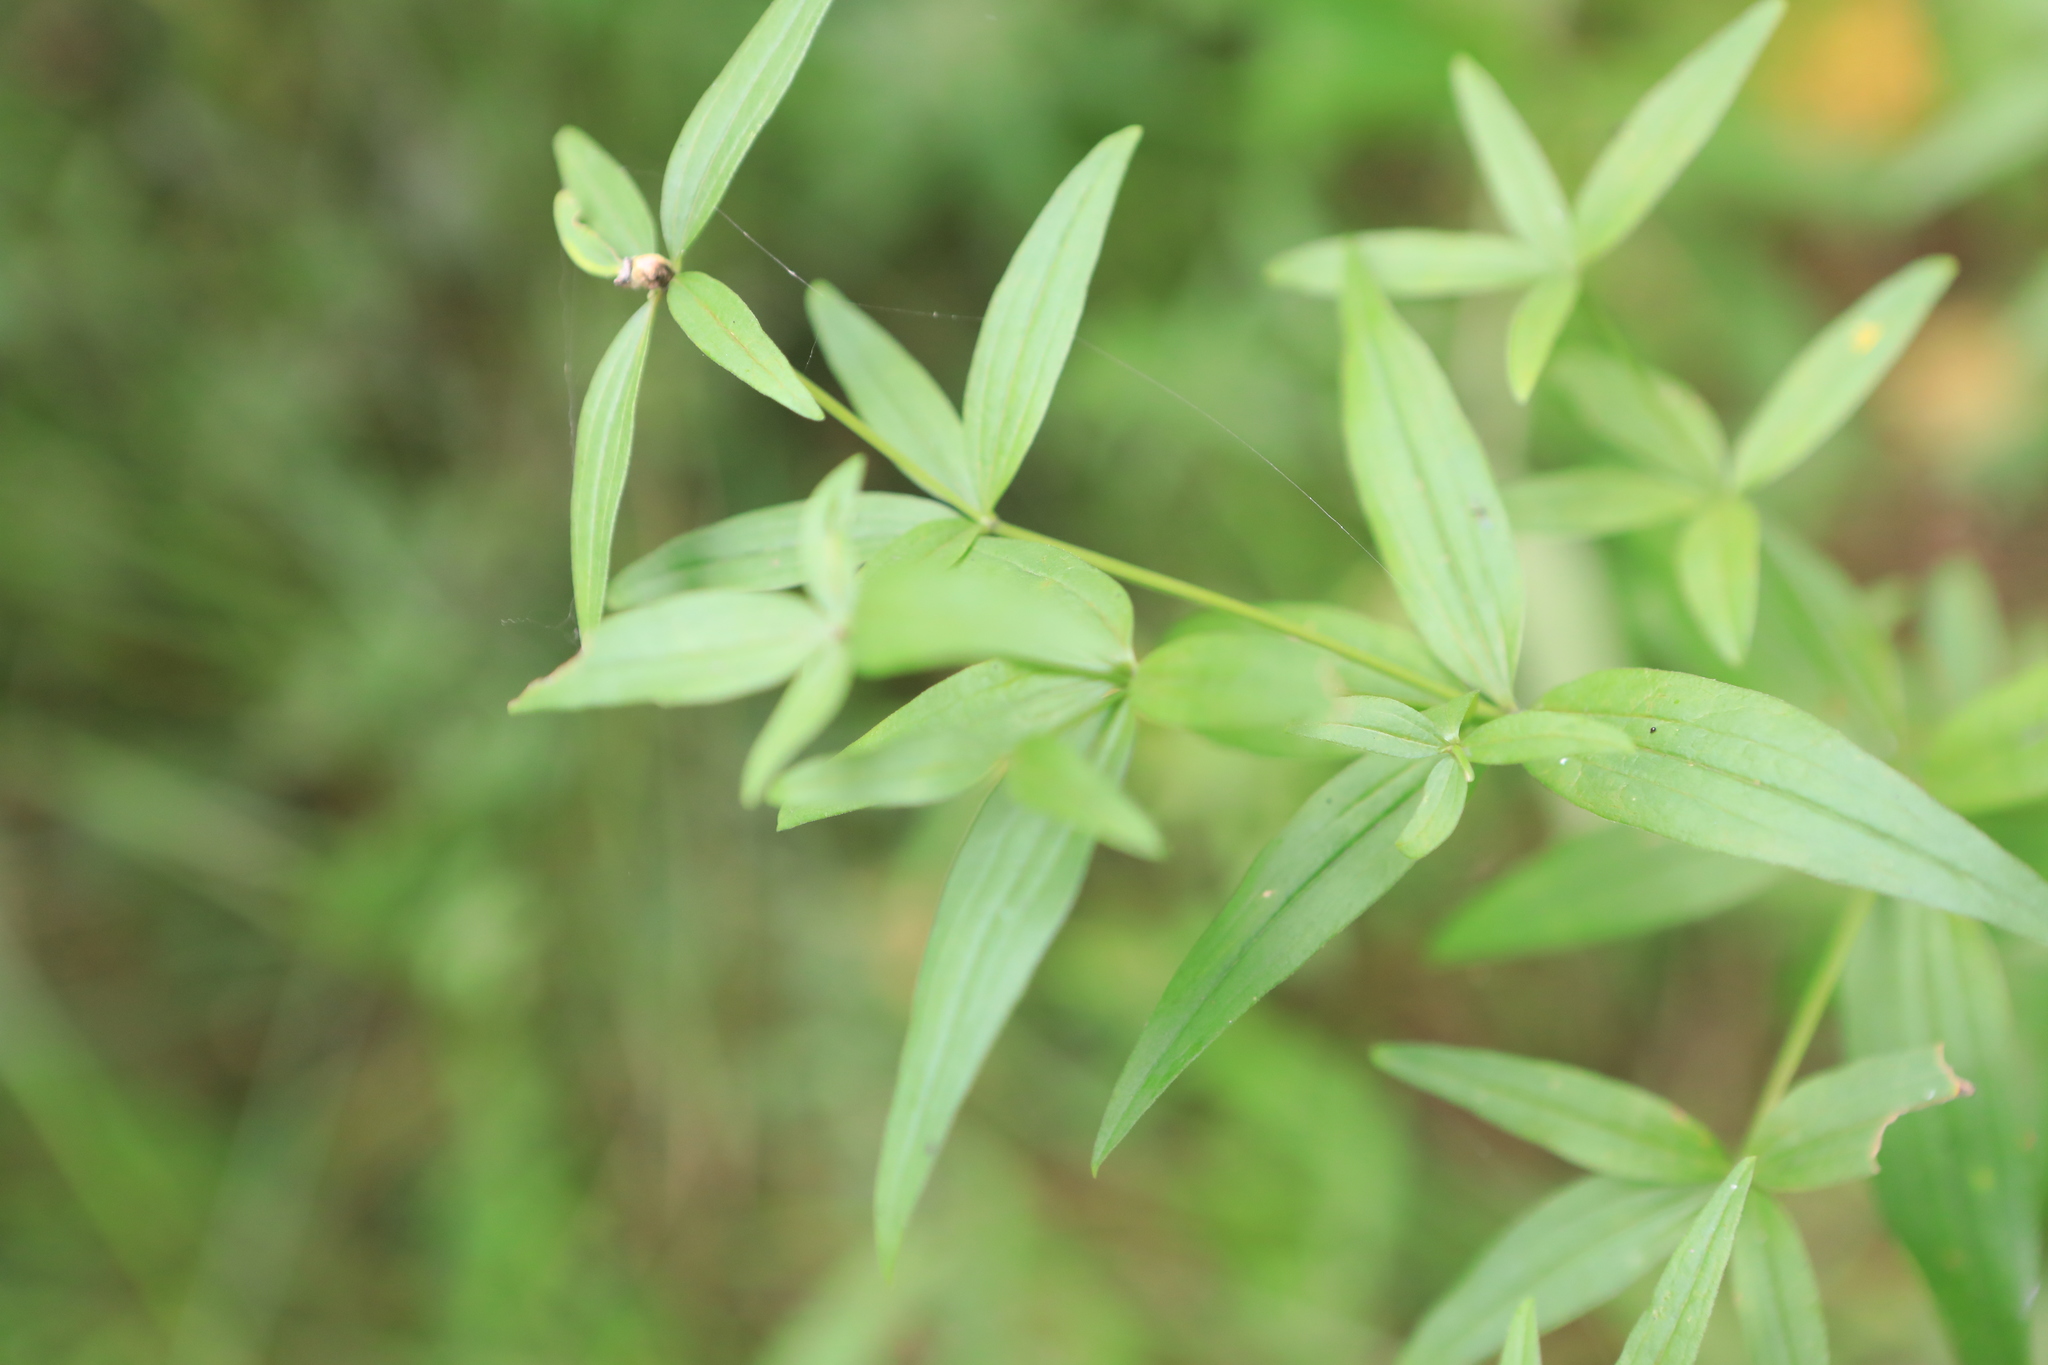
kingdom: Plantae
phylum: Tracheophyta
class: Magnoliopsida
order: Gentianales
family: Rubiaceae
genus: Galium
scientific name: Galium boreale
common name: Northern bedstraw
